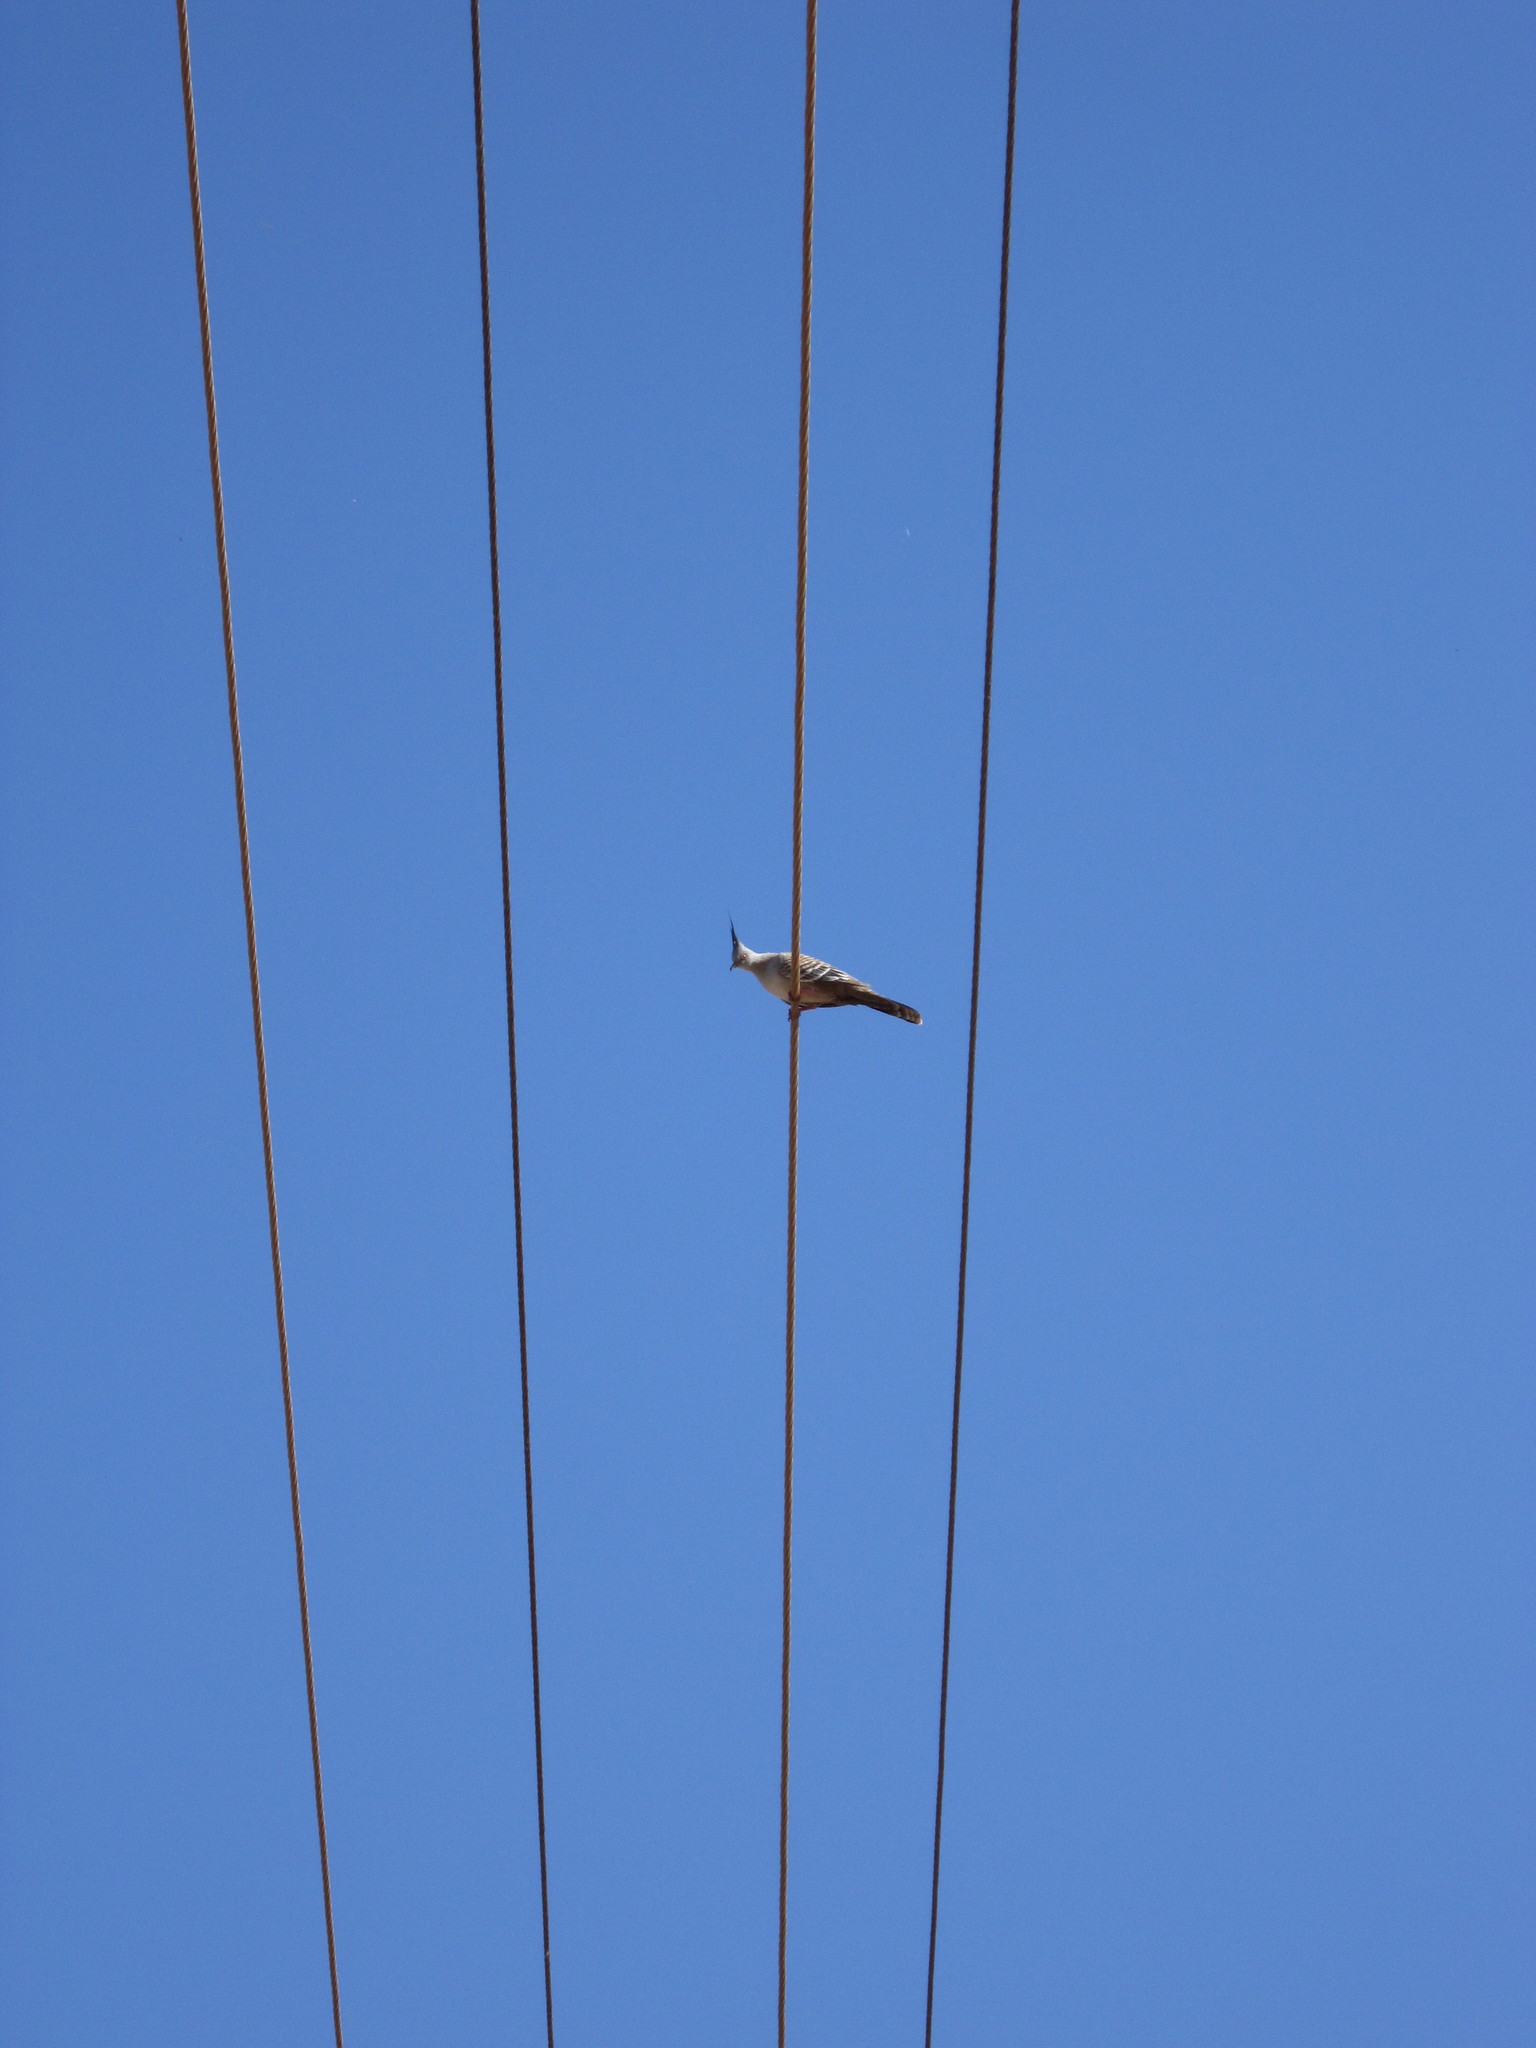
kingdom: Animalia
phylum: Chordata
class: Aves
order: Columbiformes
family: Columbidae
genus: Ocyphaps
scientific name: Ocyphaps lophotes
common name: Crested pigeon
